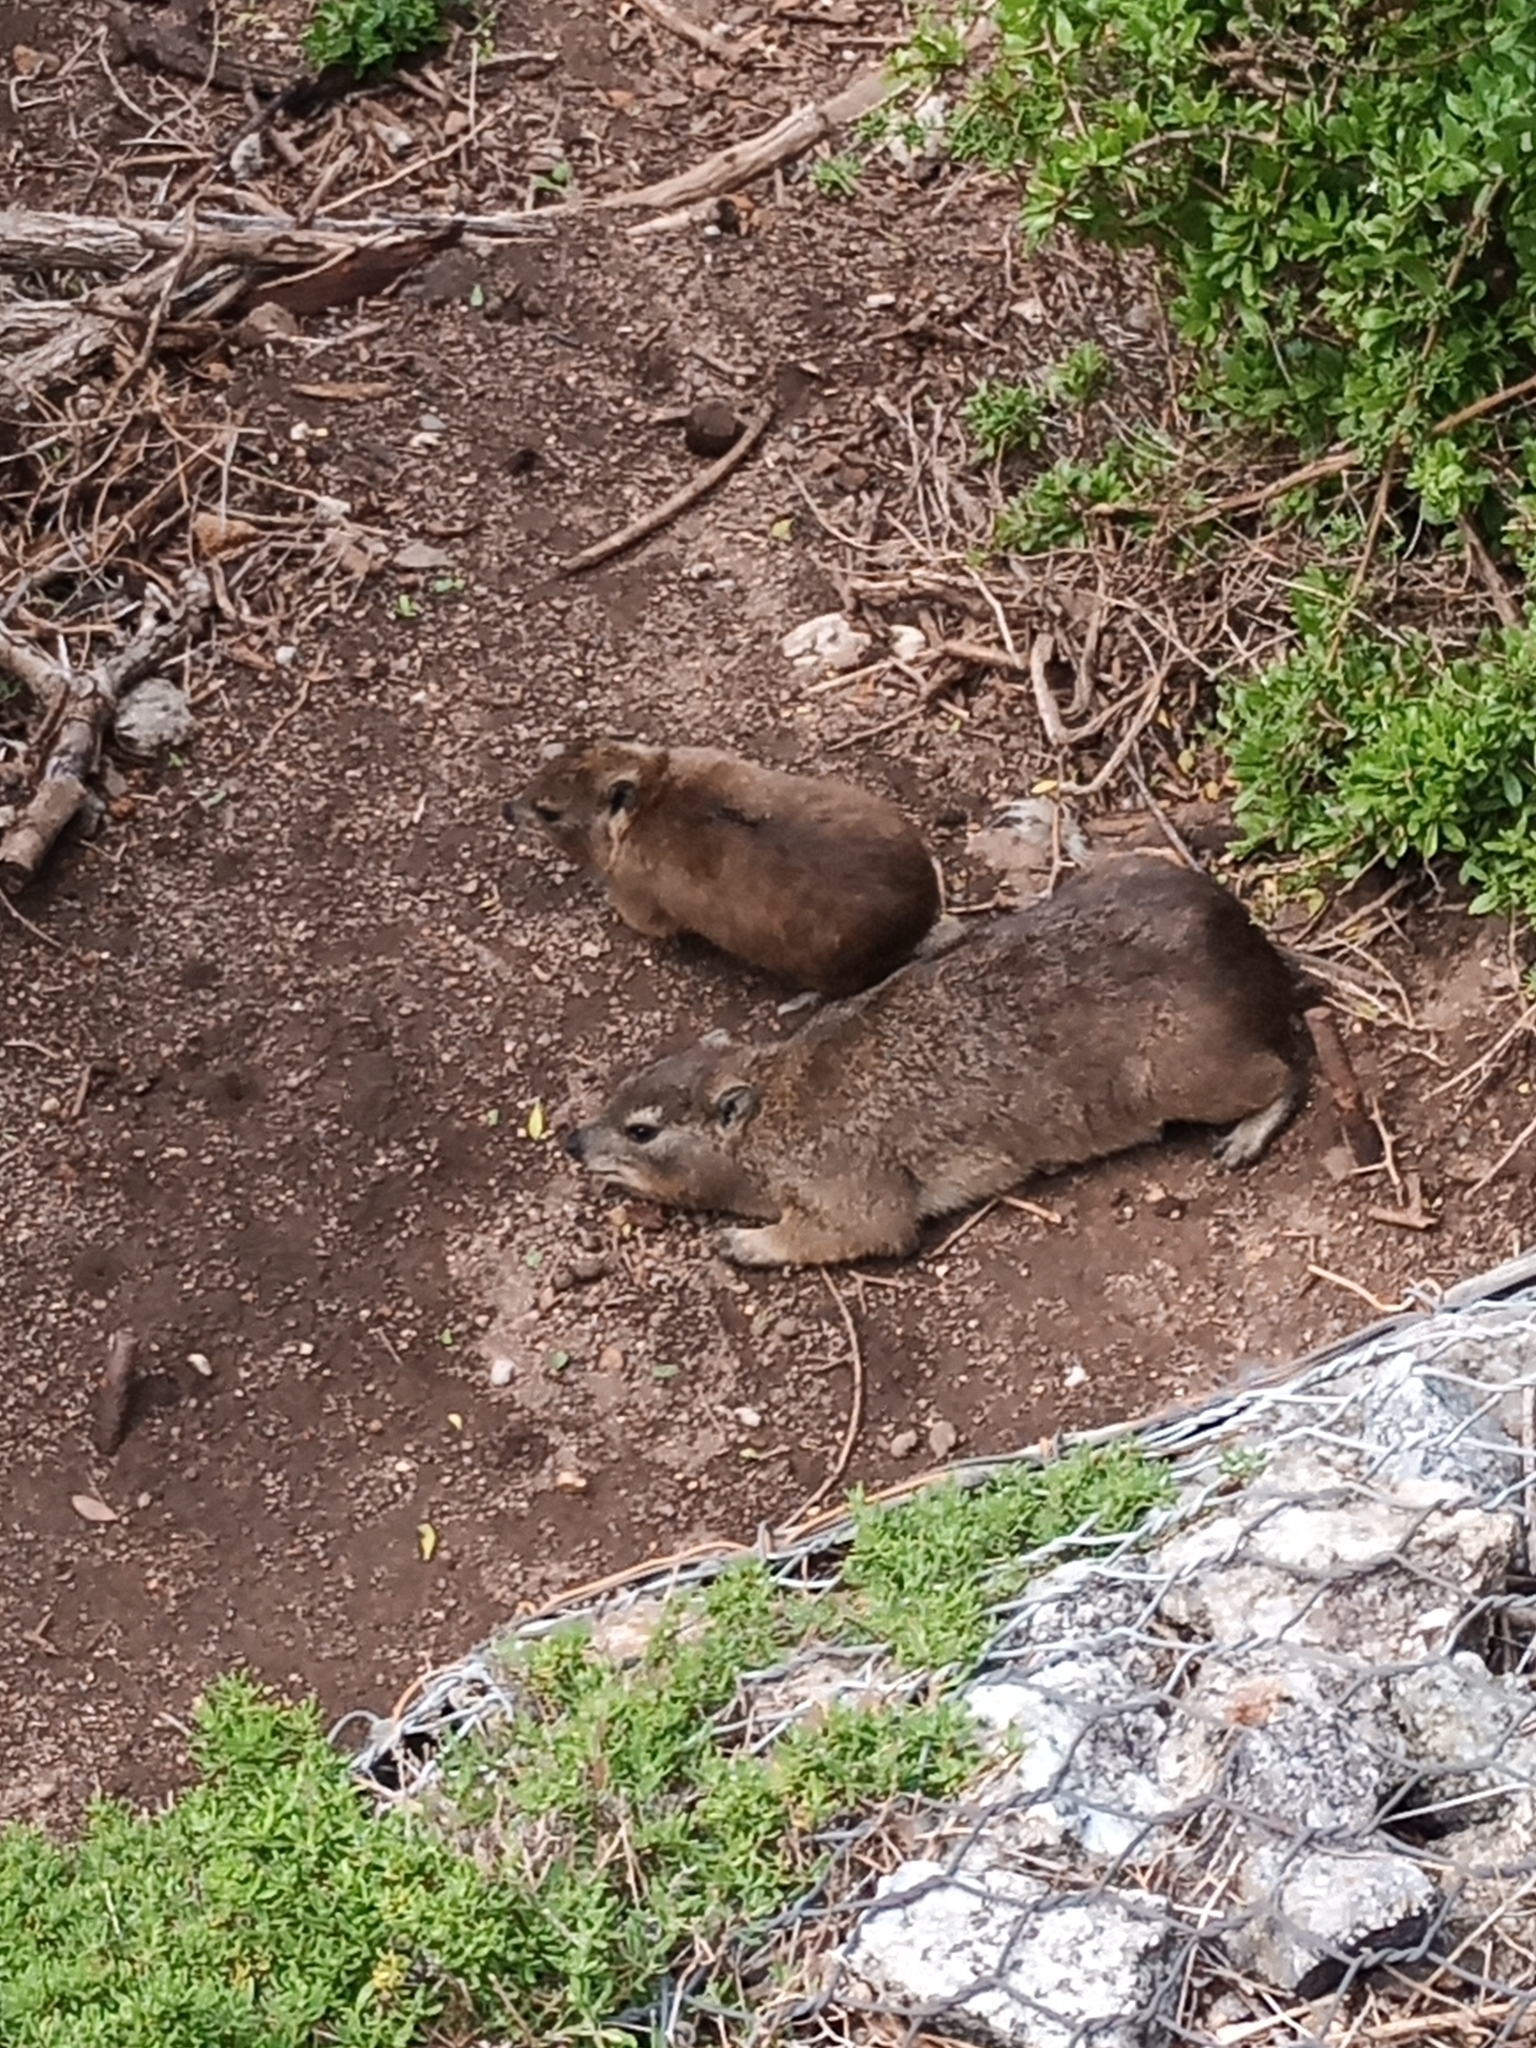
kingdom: Animalia
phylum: Chordata
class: Mammalia
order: Hyracoidea
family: Procaviidae
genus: Procavia
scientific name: Procavia capensis
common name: Rock hyrax
